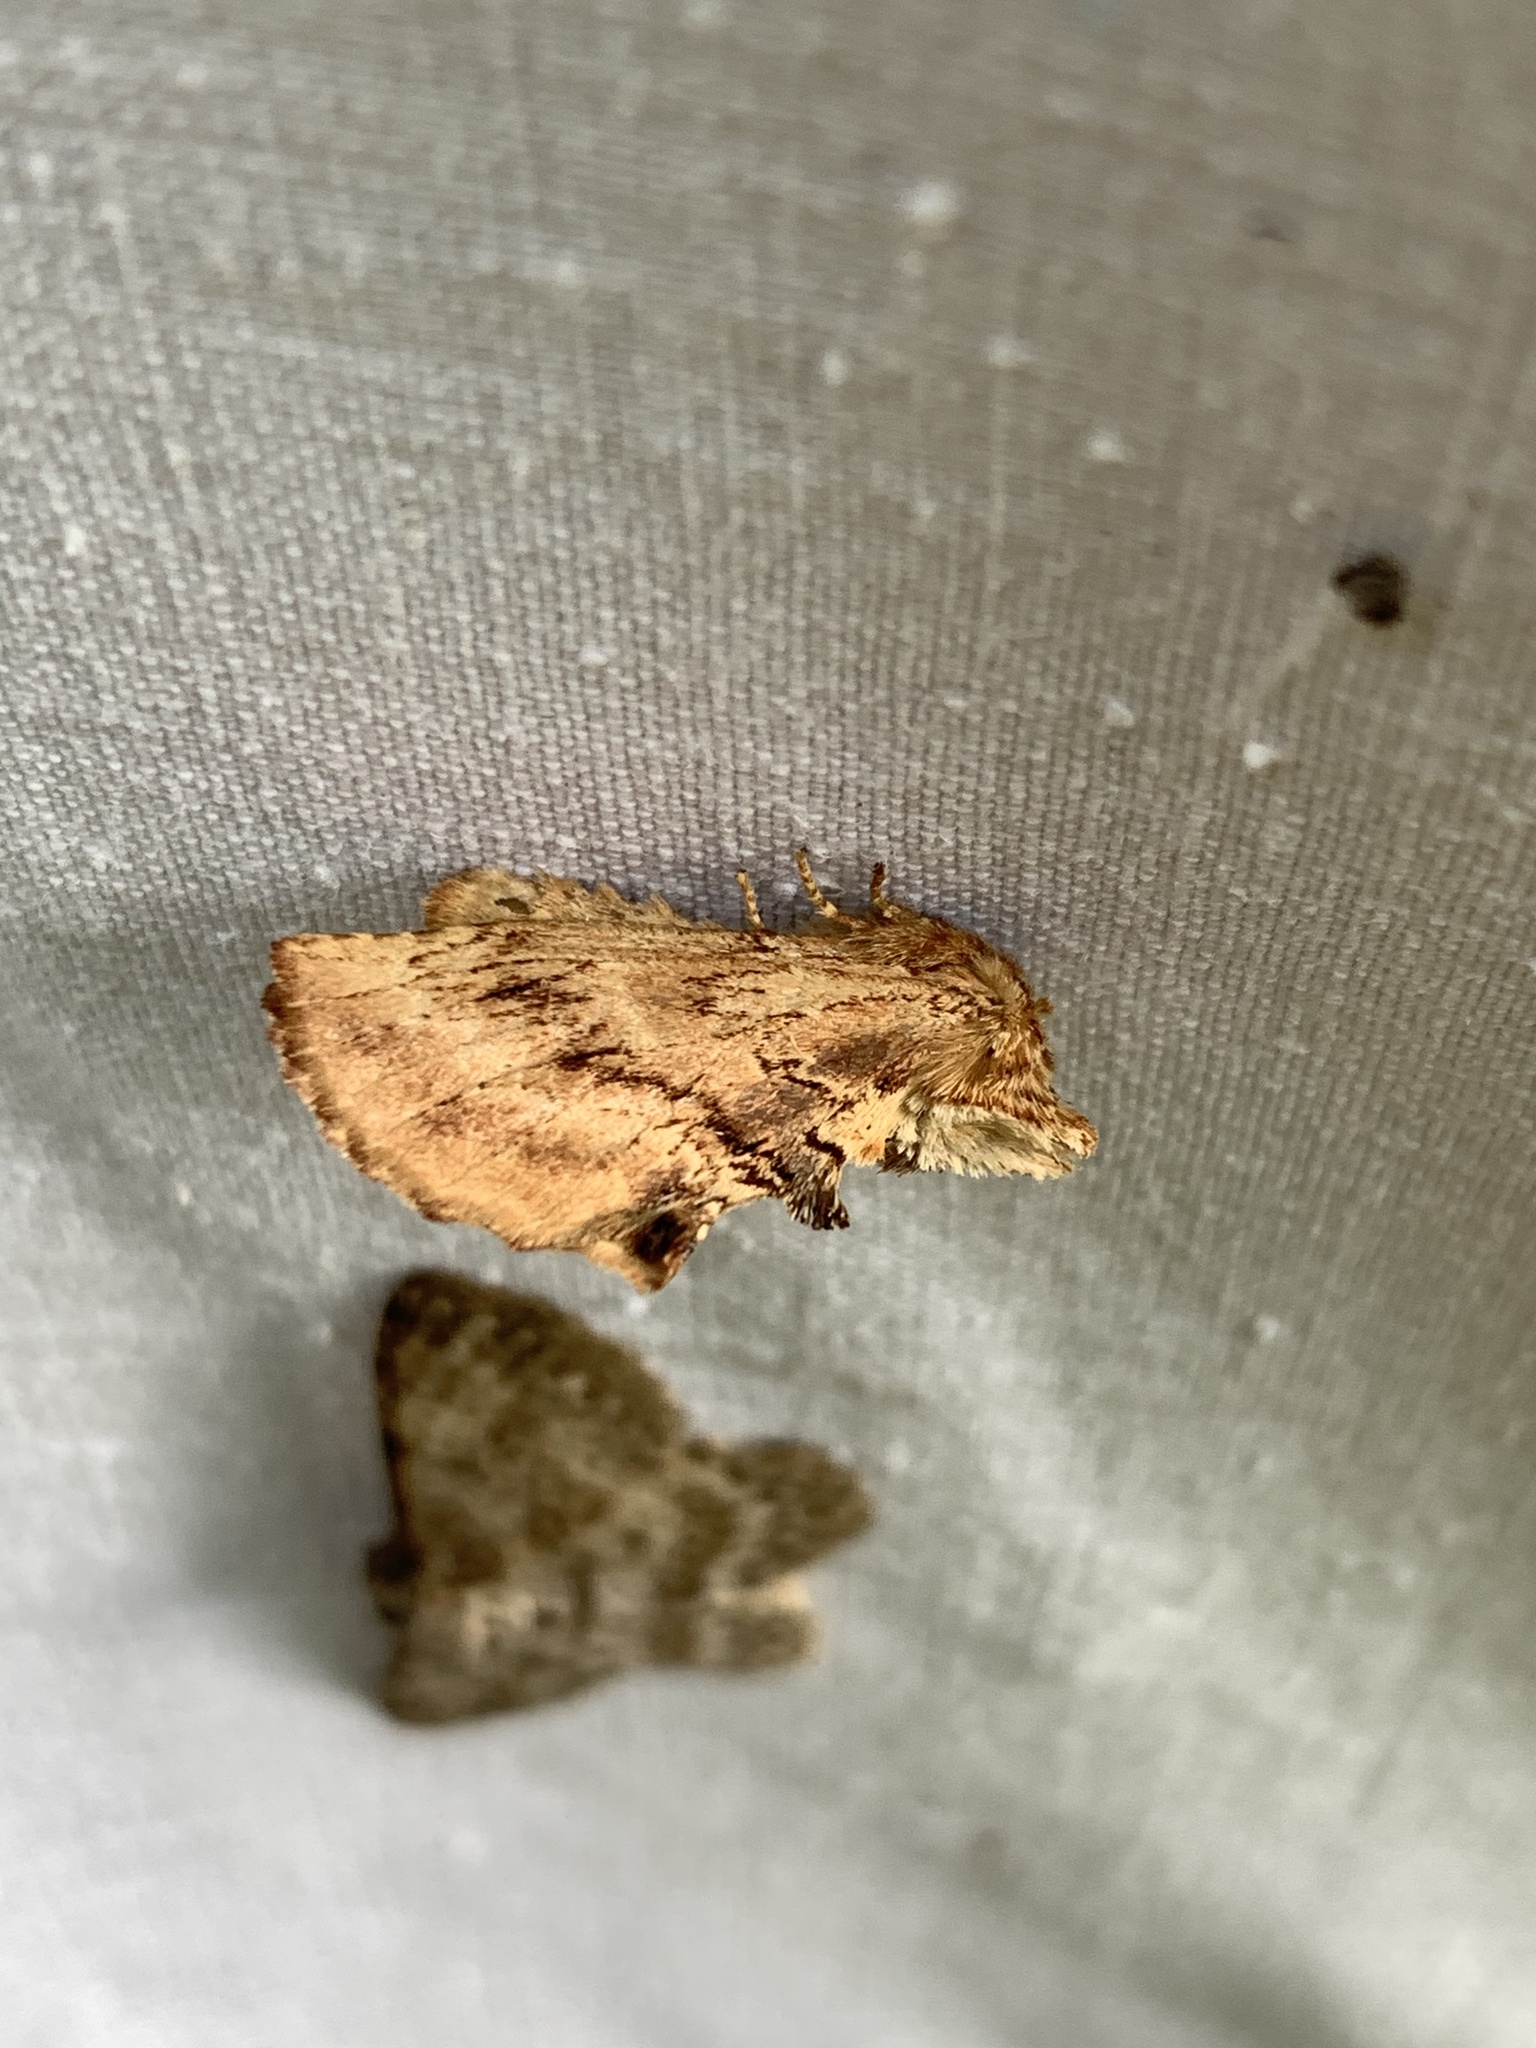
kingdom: Animalia
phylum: Arthropoda
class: Insecta
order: Lepidoptera
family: Notodontidae
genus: Ptilodon
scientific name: Ptilodon capucina
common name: Coxcomb prominent
